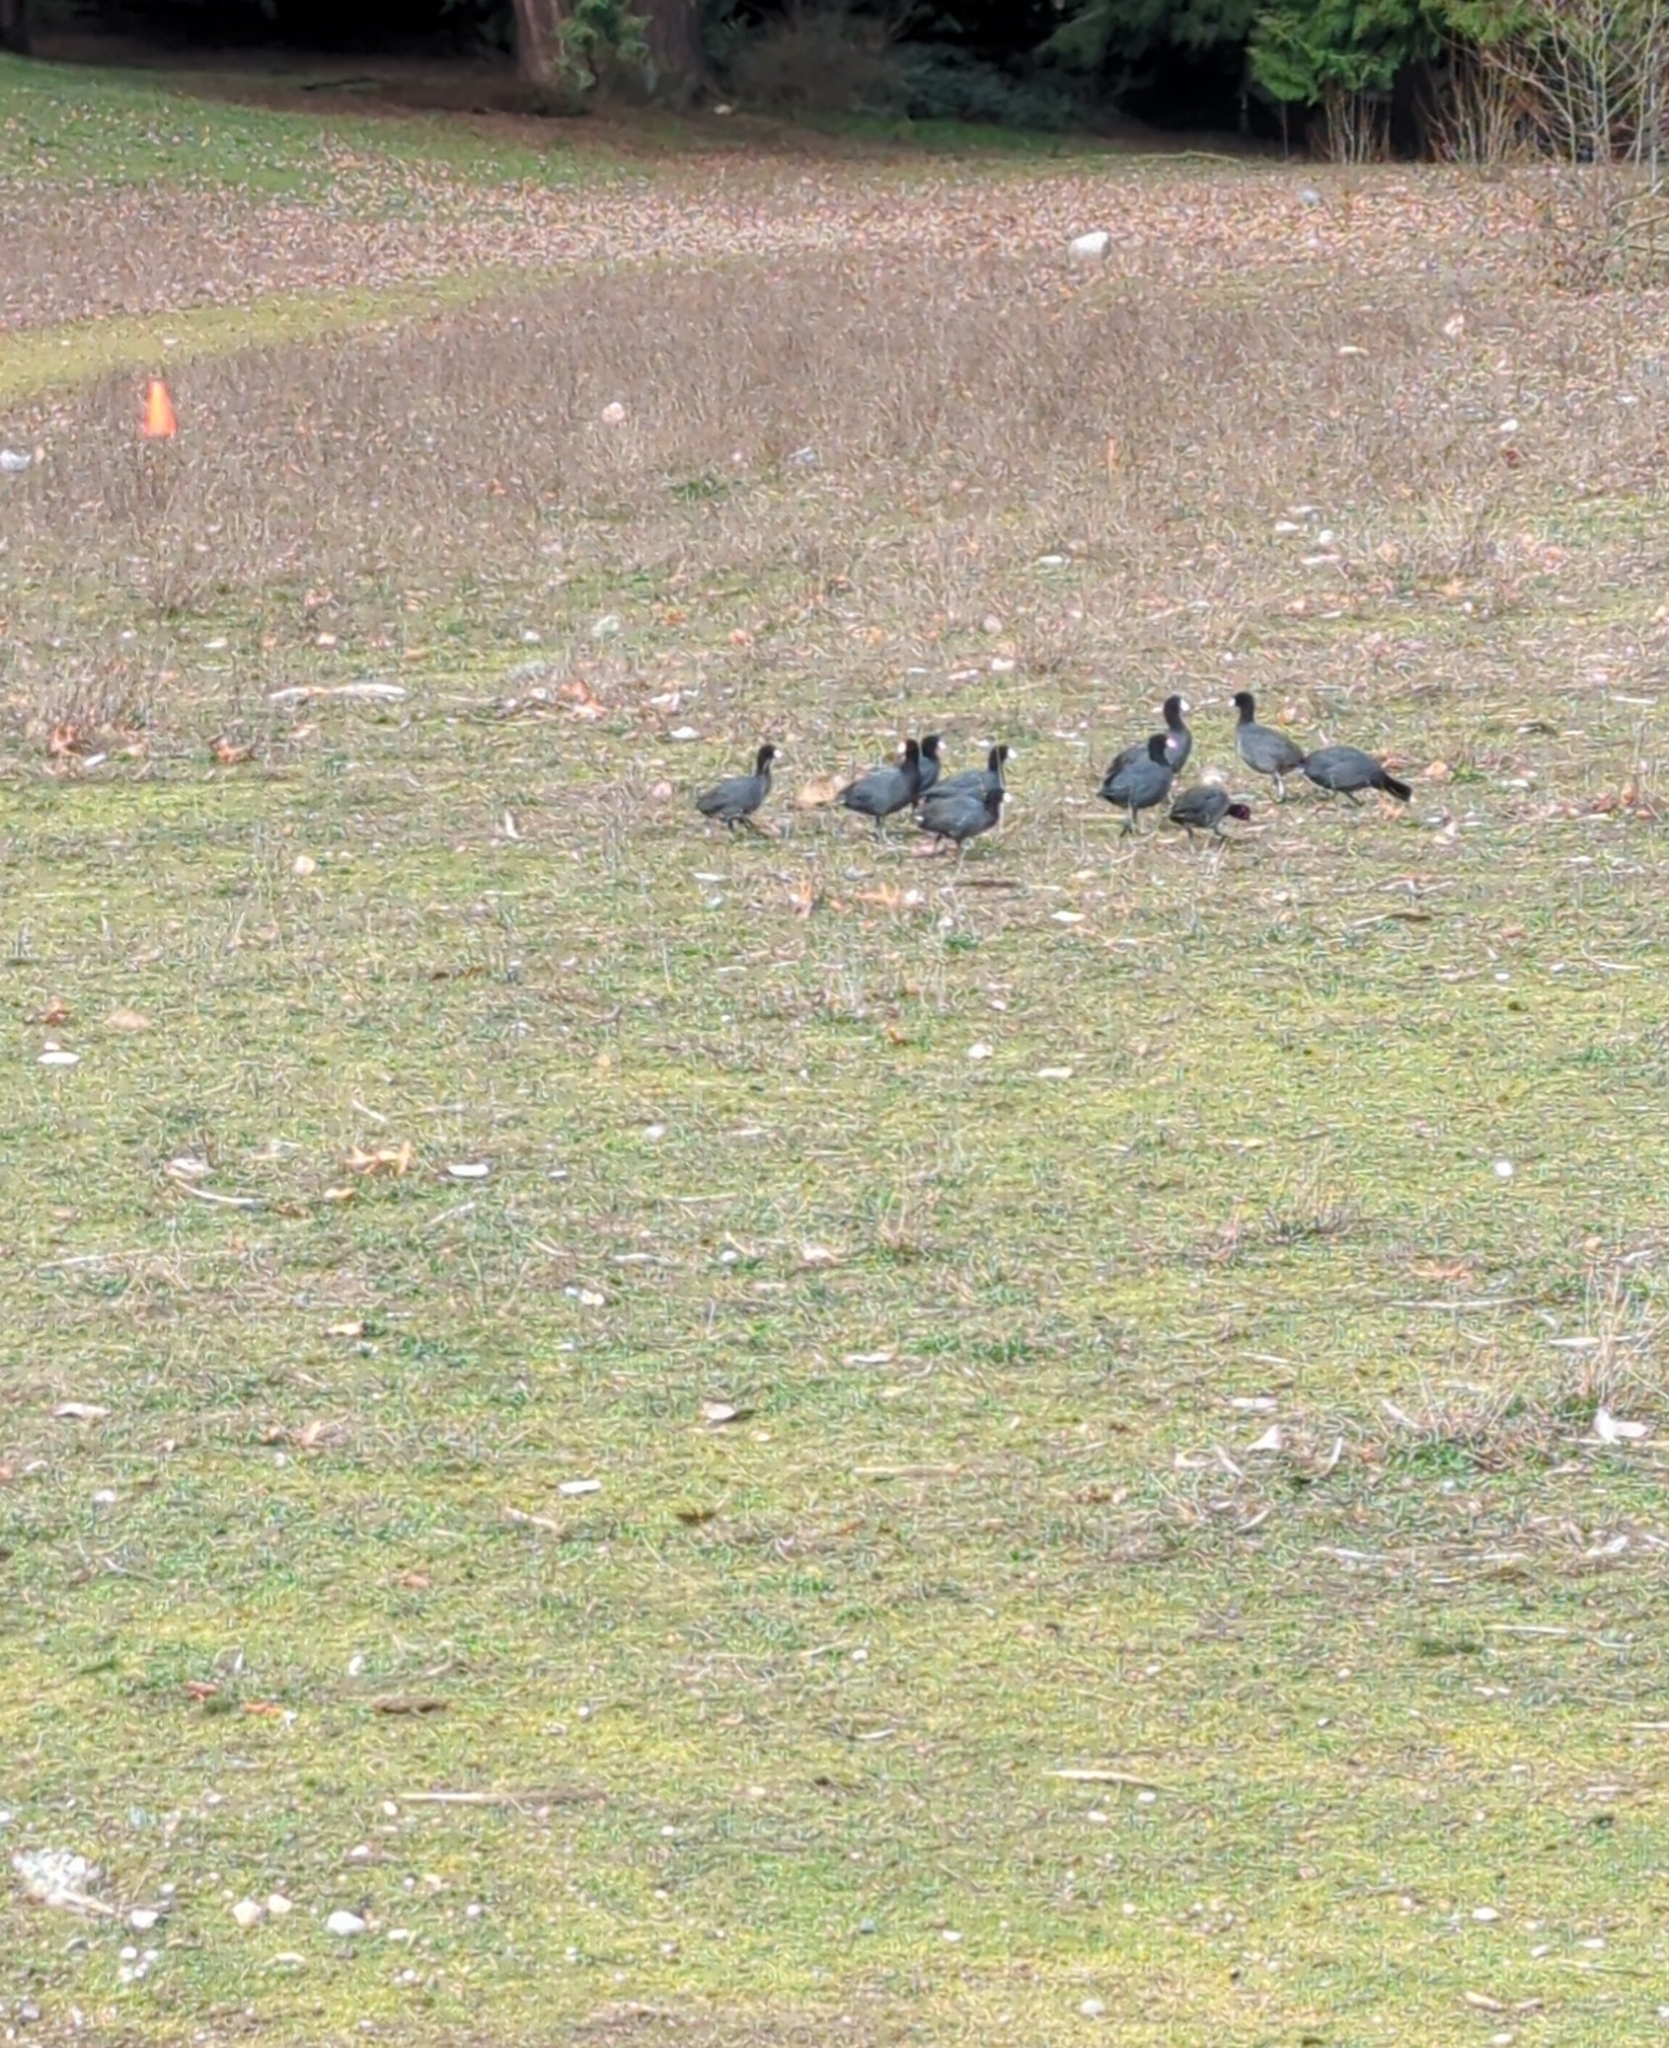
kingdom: Animalia
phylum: Chordata
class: Aves
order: Gruiformes
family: Rallidae
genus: Fulica
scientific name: Fulica americana
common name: American coot
